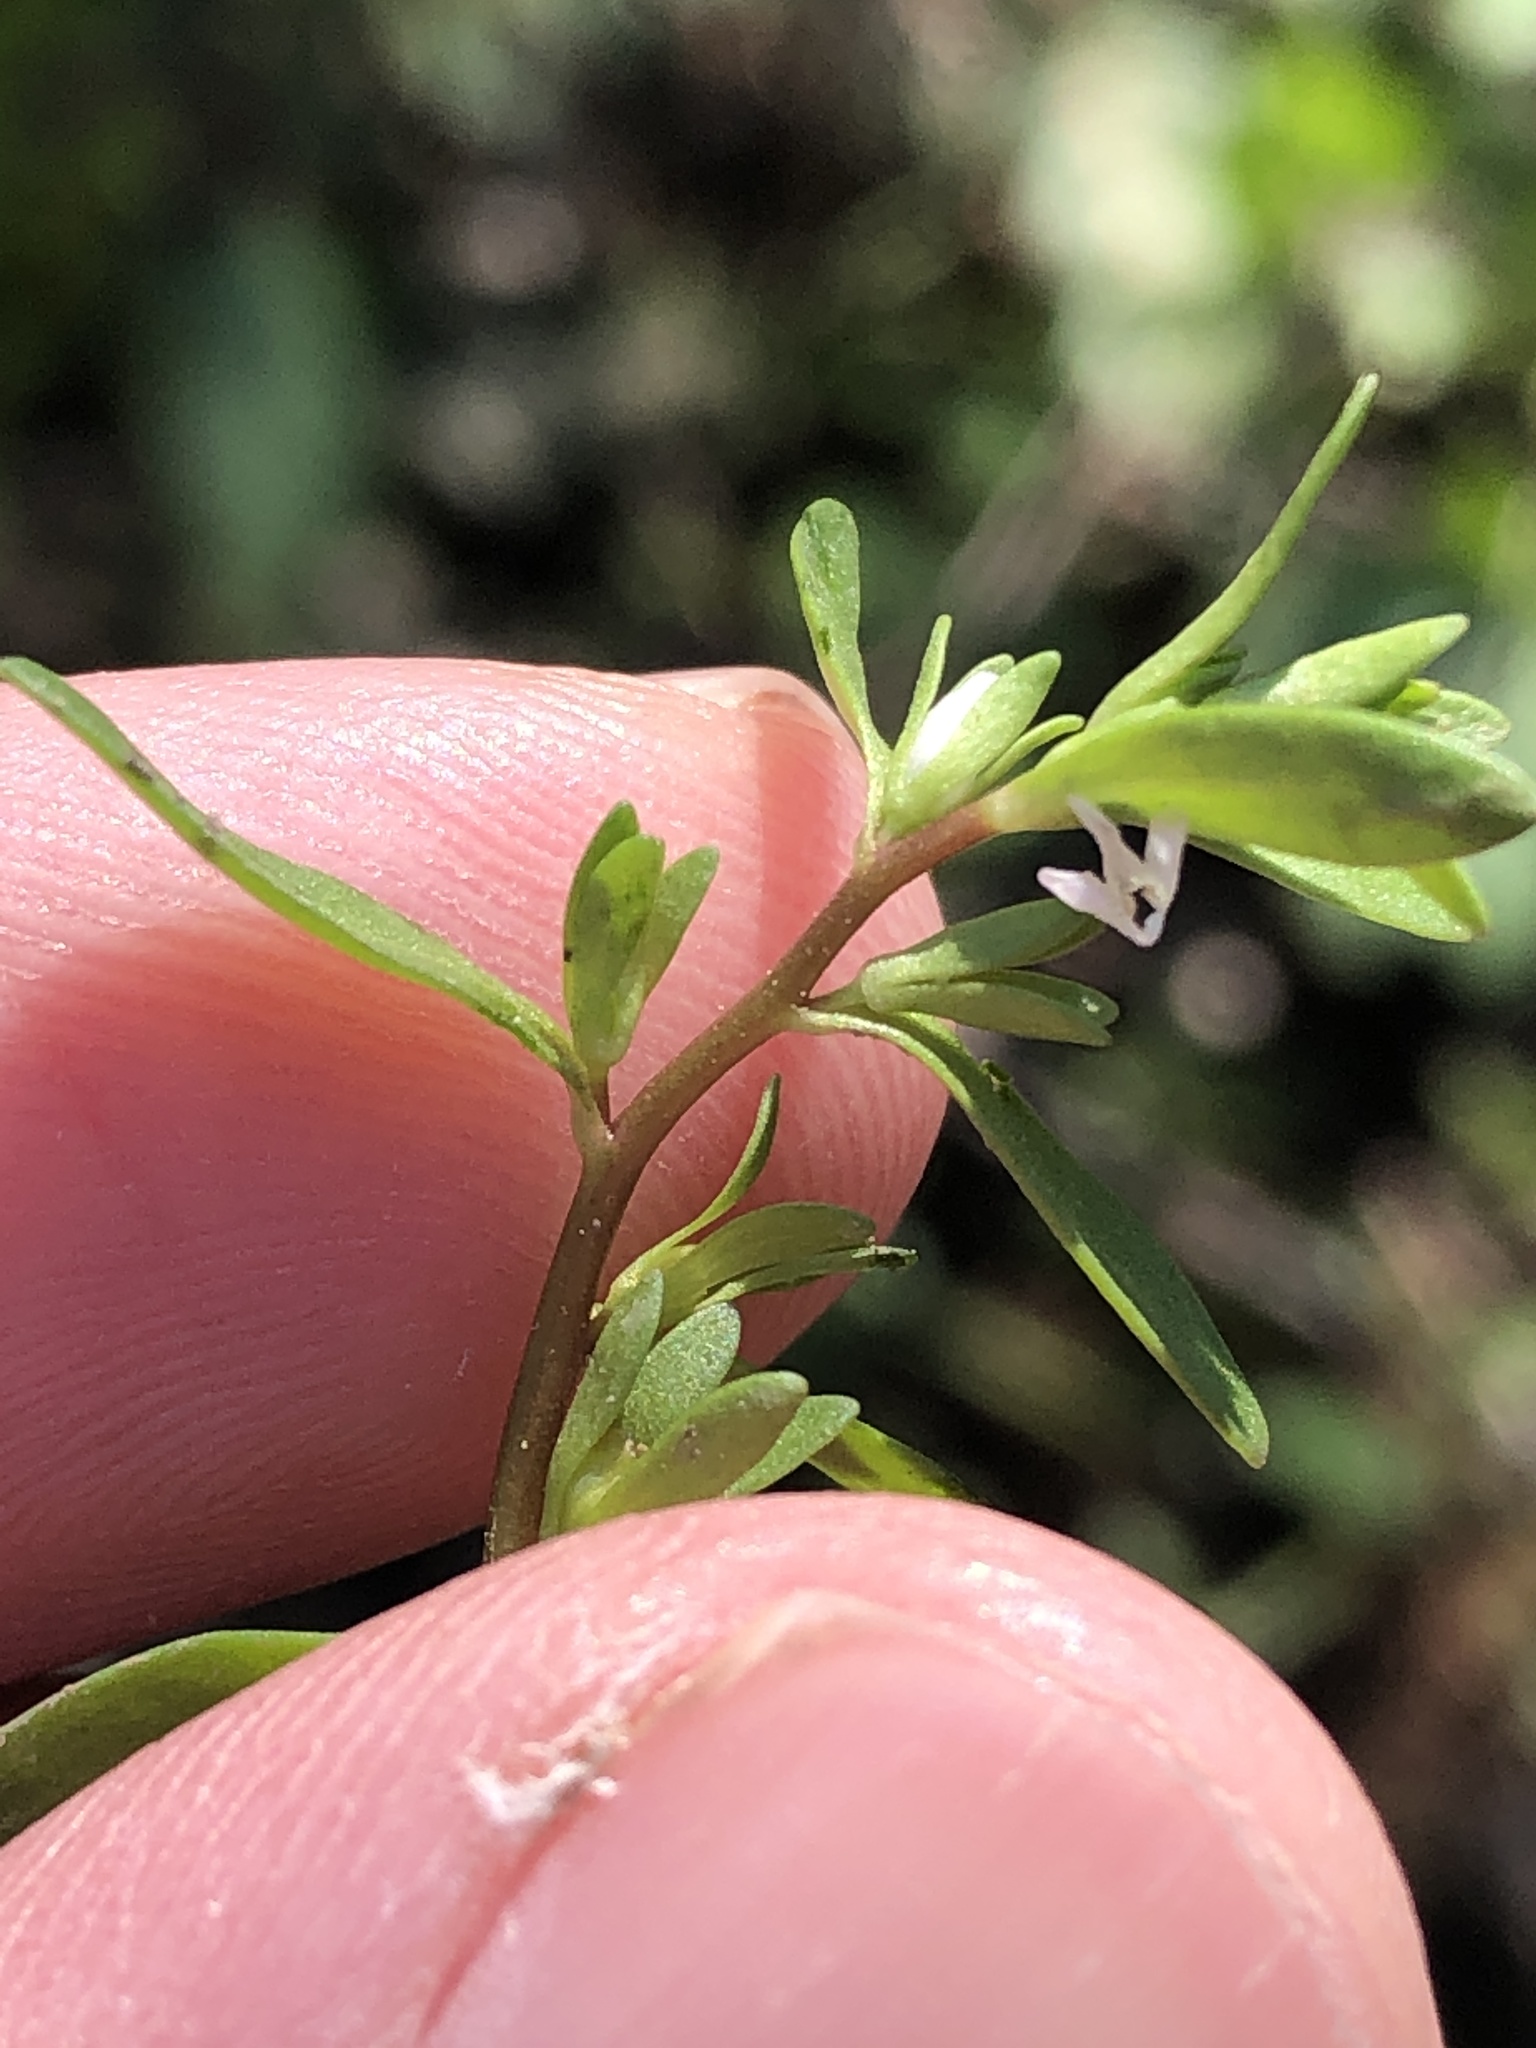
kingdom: Plantae
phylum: Tracheophyta
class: Magnoliopsida
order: Lamiales
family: Plantaginaceae
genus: Veronica
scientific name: Veronica peregrina
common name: Neckweed
